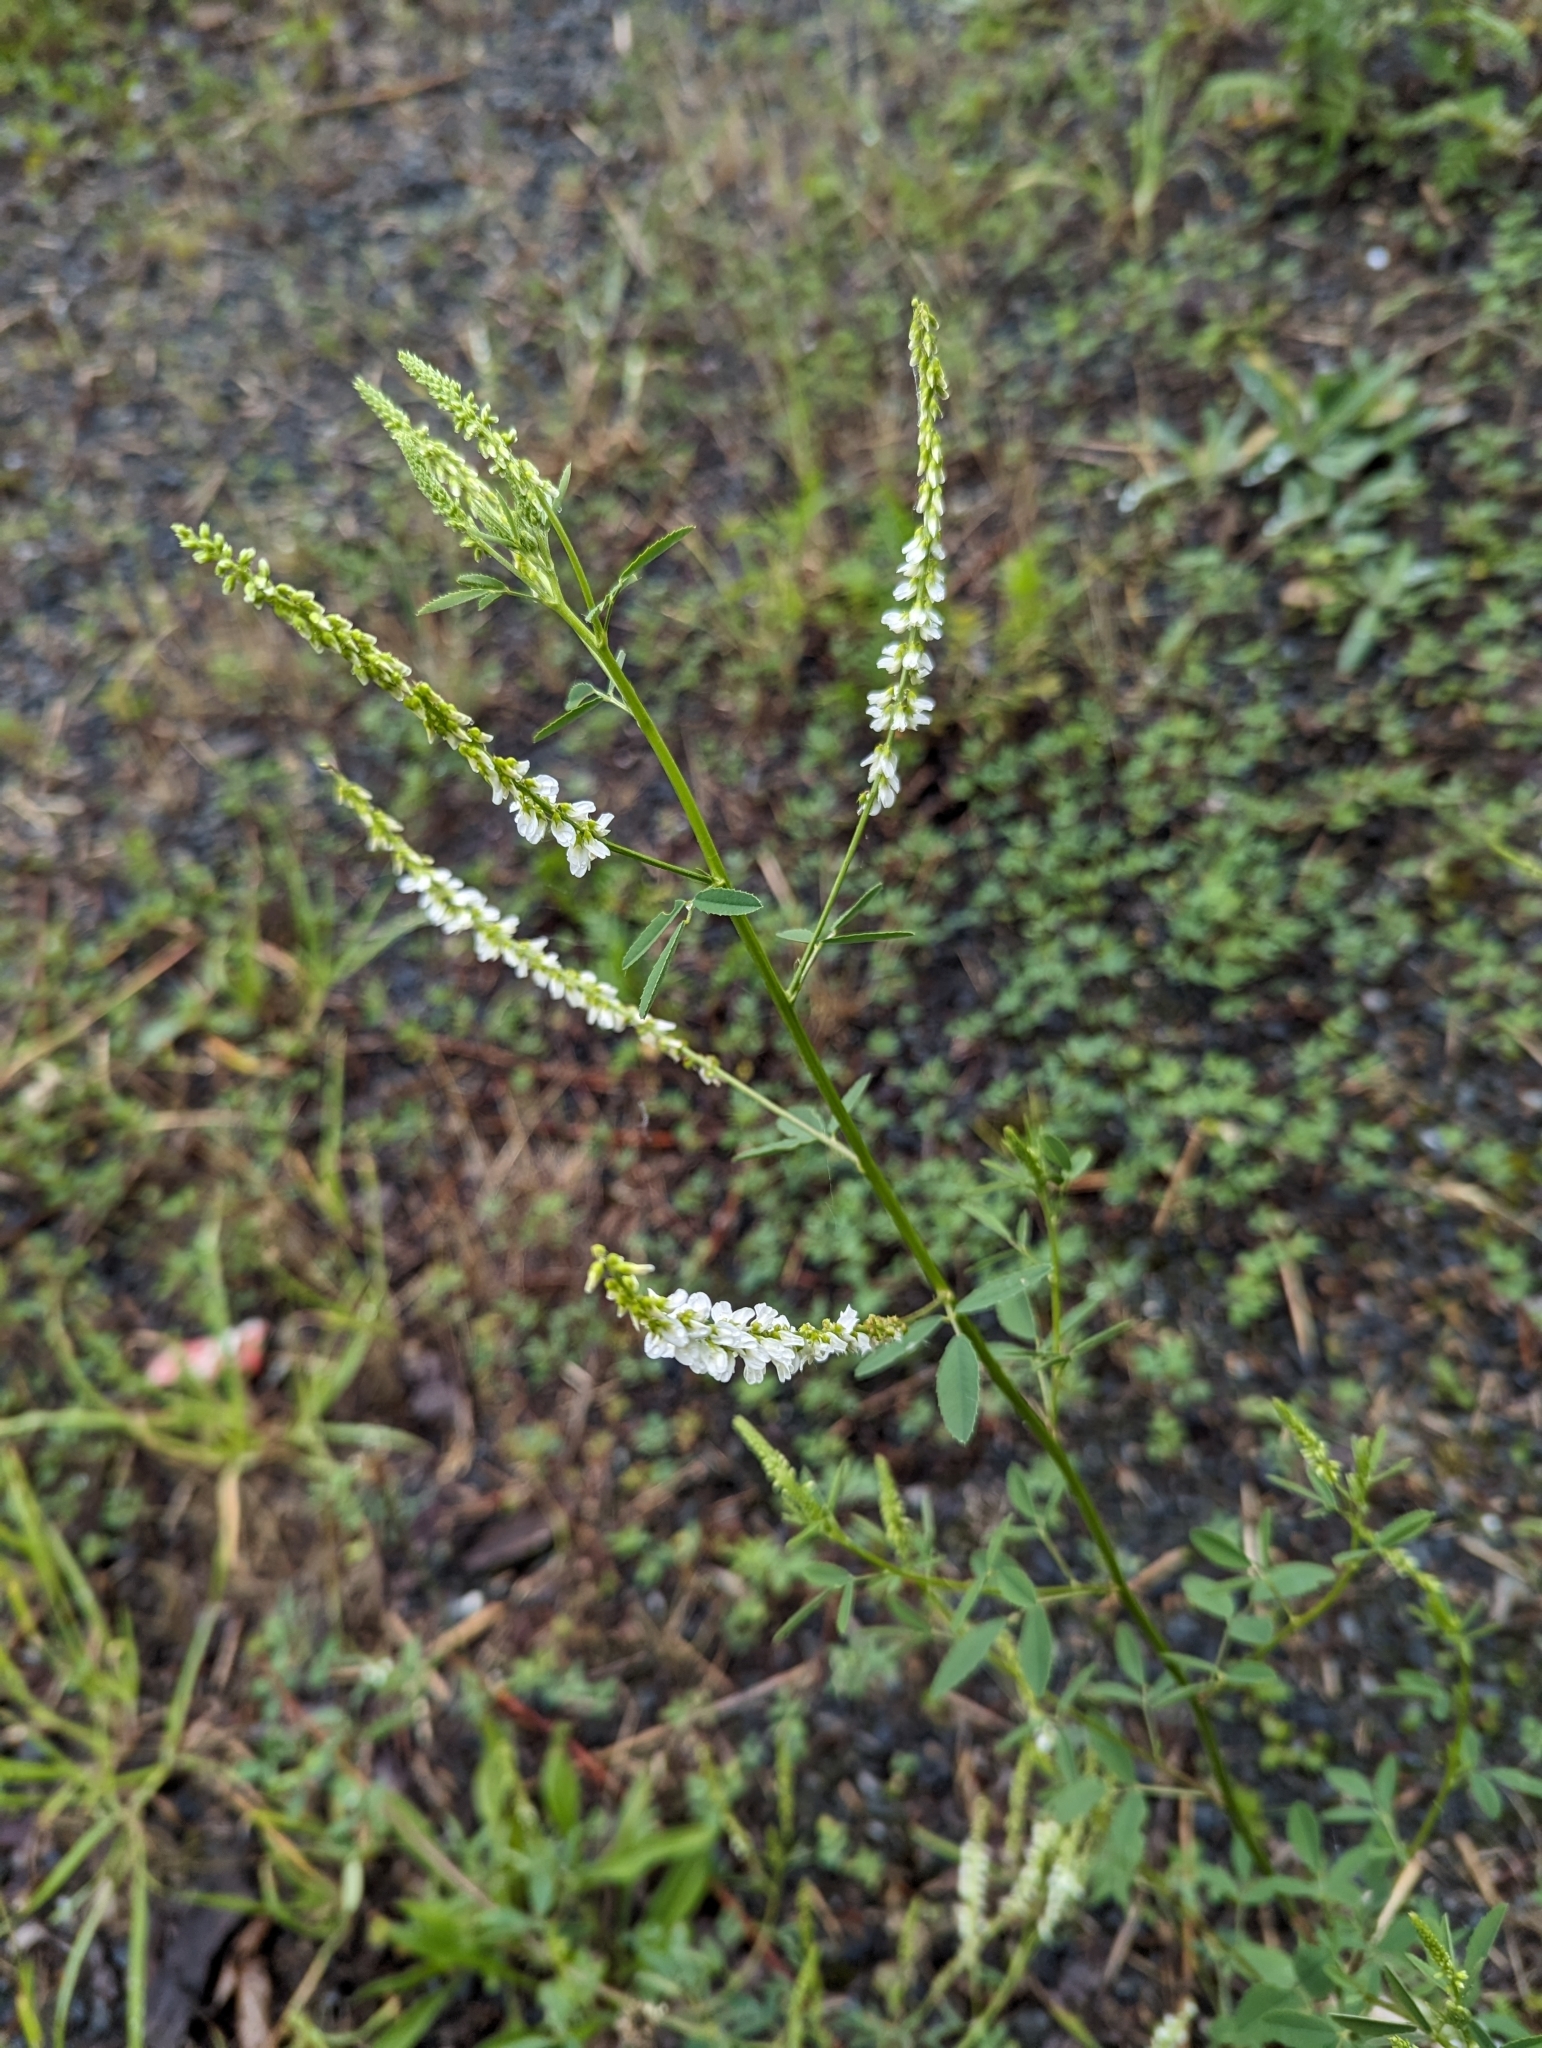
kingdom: Plantae
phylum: Tracheophyta
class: Magnoliopsida
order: Fabales
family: Fabaceae
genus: Melilotus
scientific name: Melilotus albus
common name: White melilot
